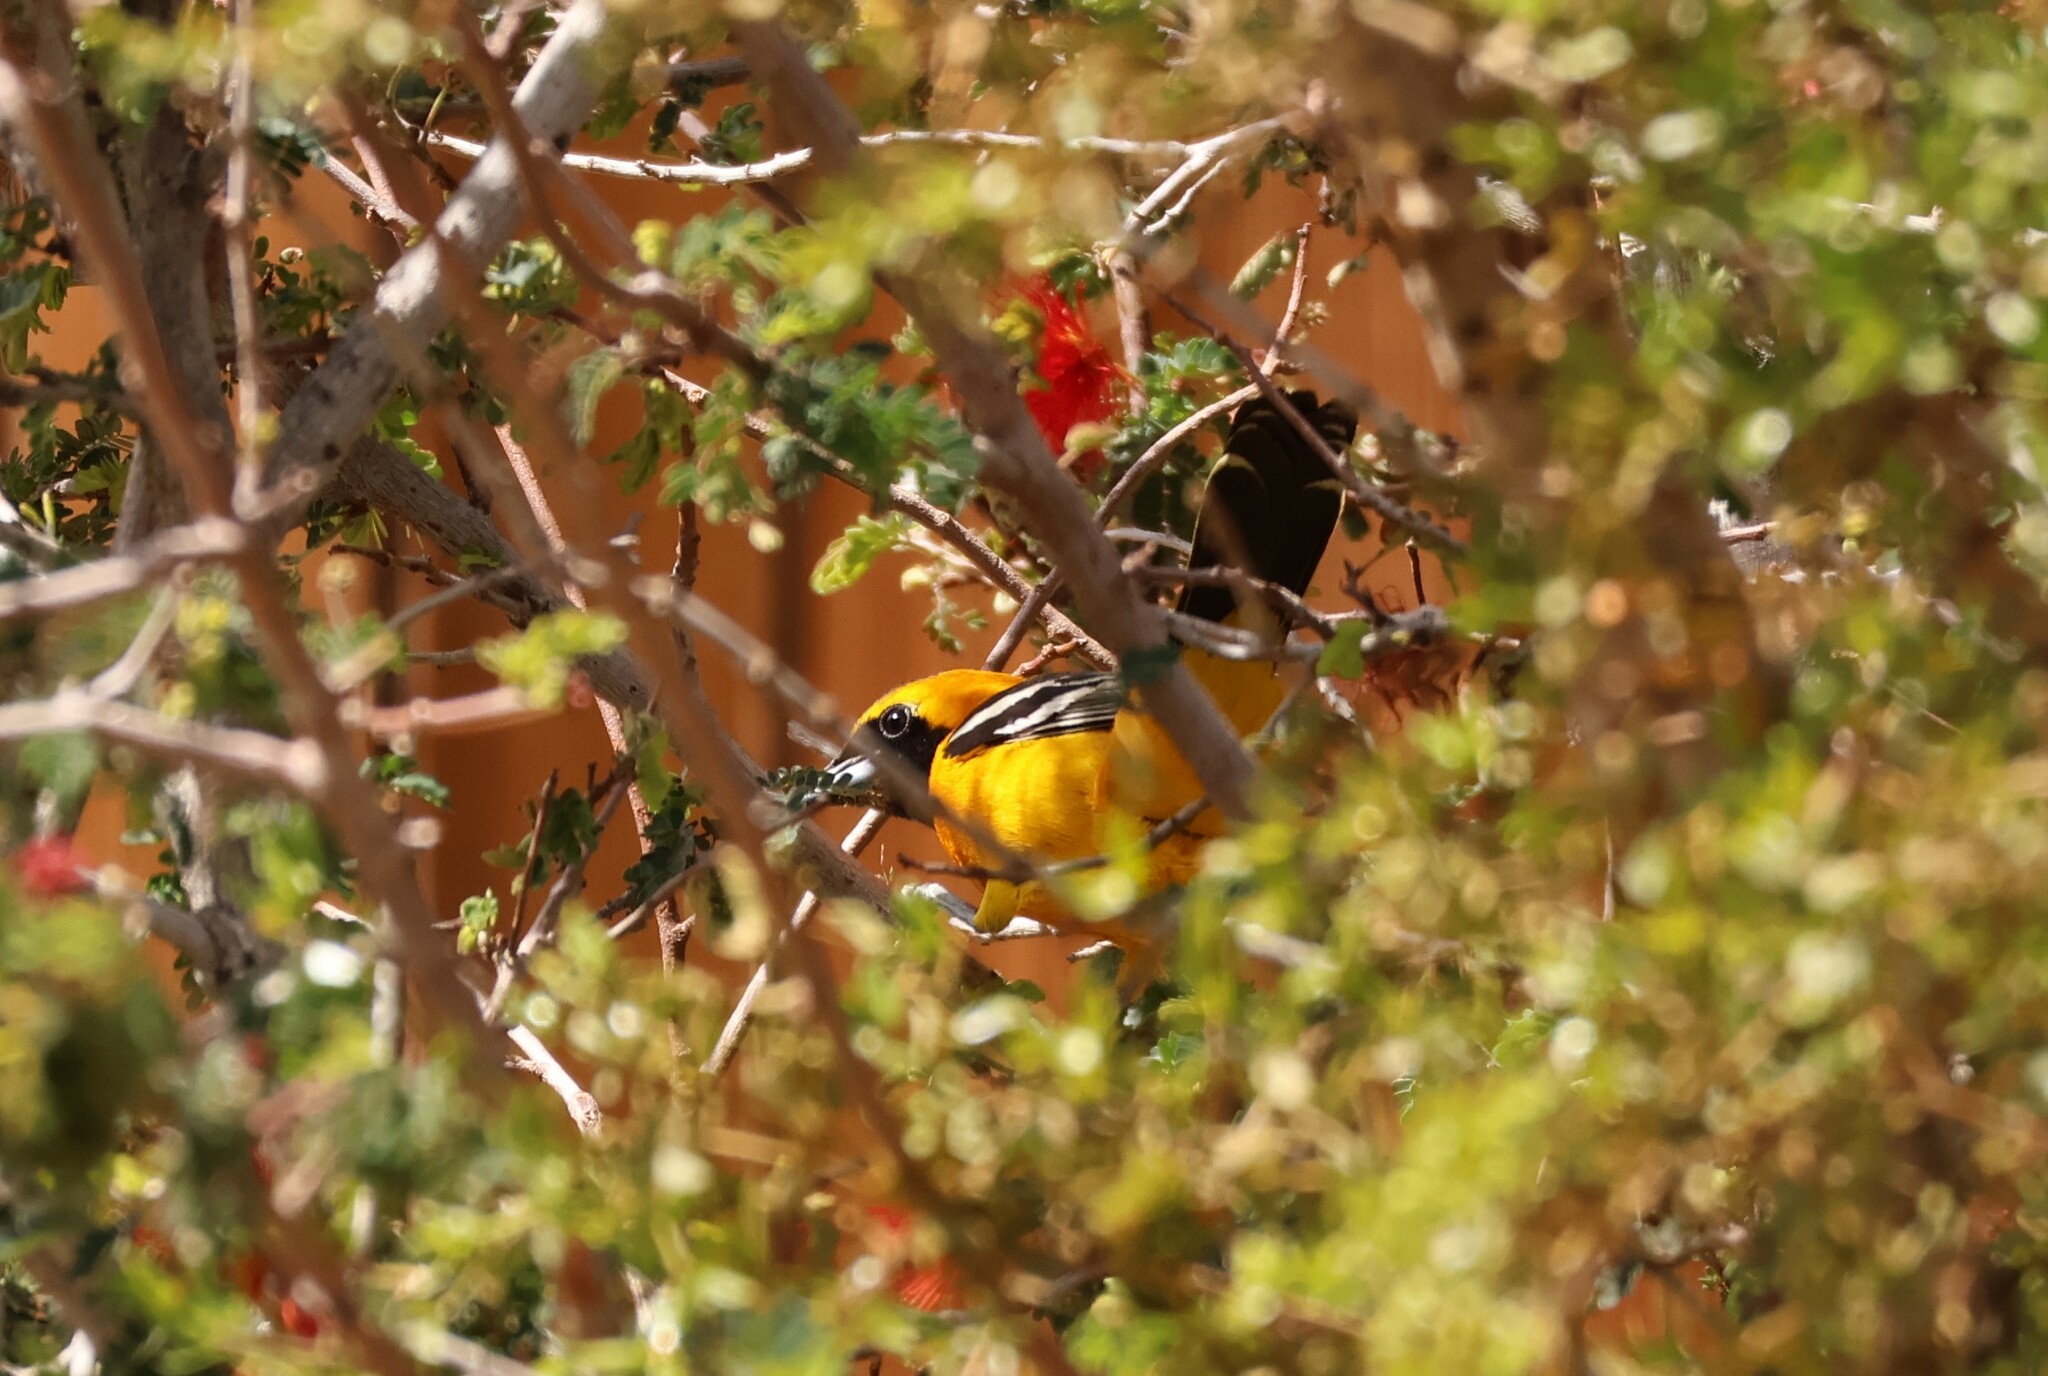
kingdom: Animalia
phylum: Chordata
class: Aves
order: Passeriformes
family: Icteridae
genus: Icterus
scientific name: Icterus cucullatus
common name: Hooded oriole
